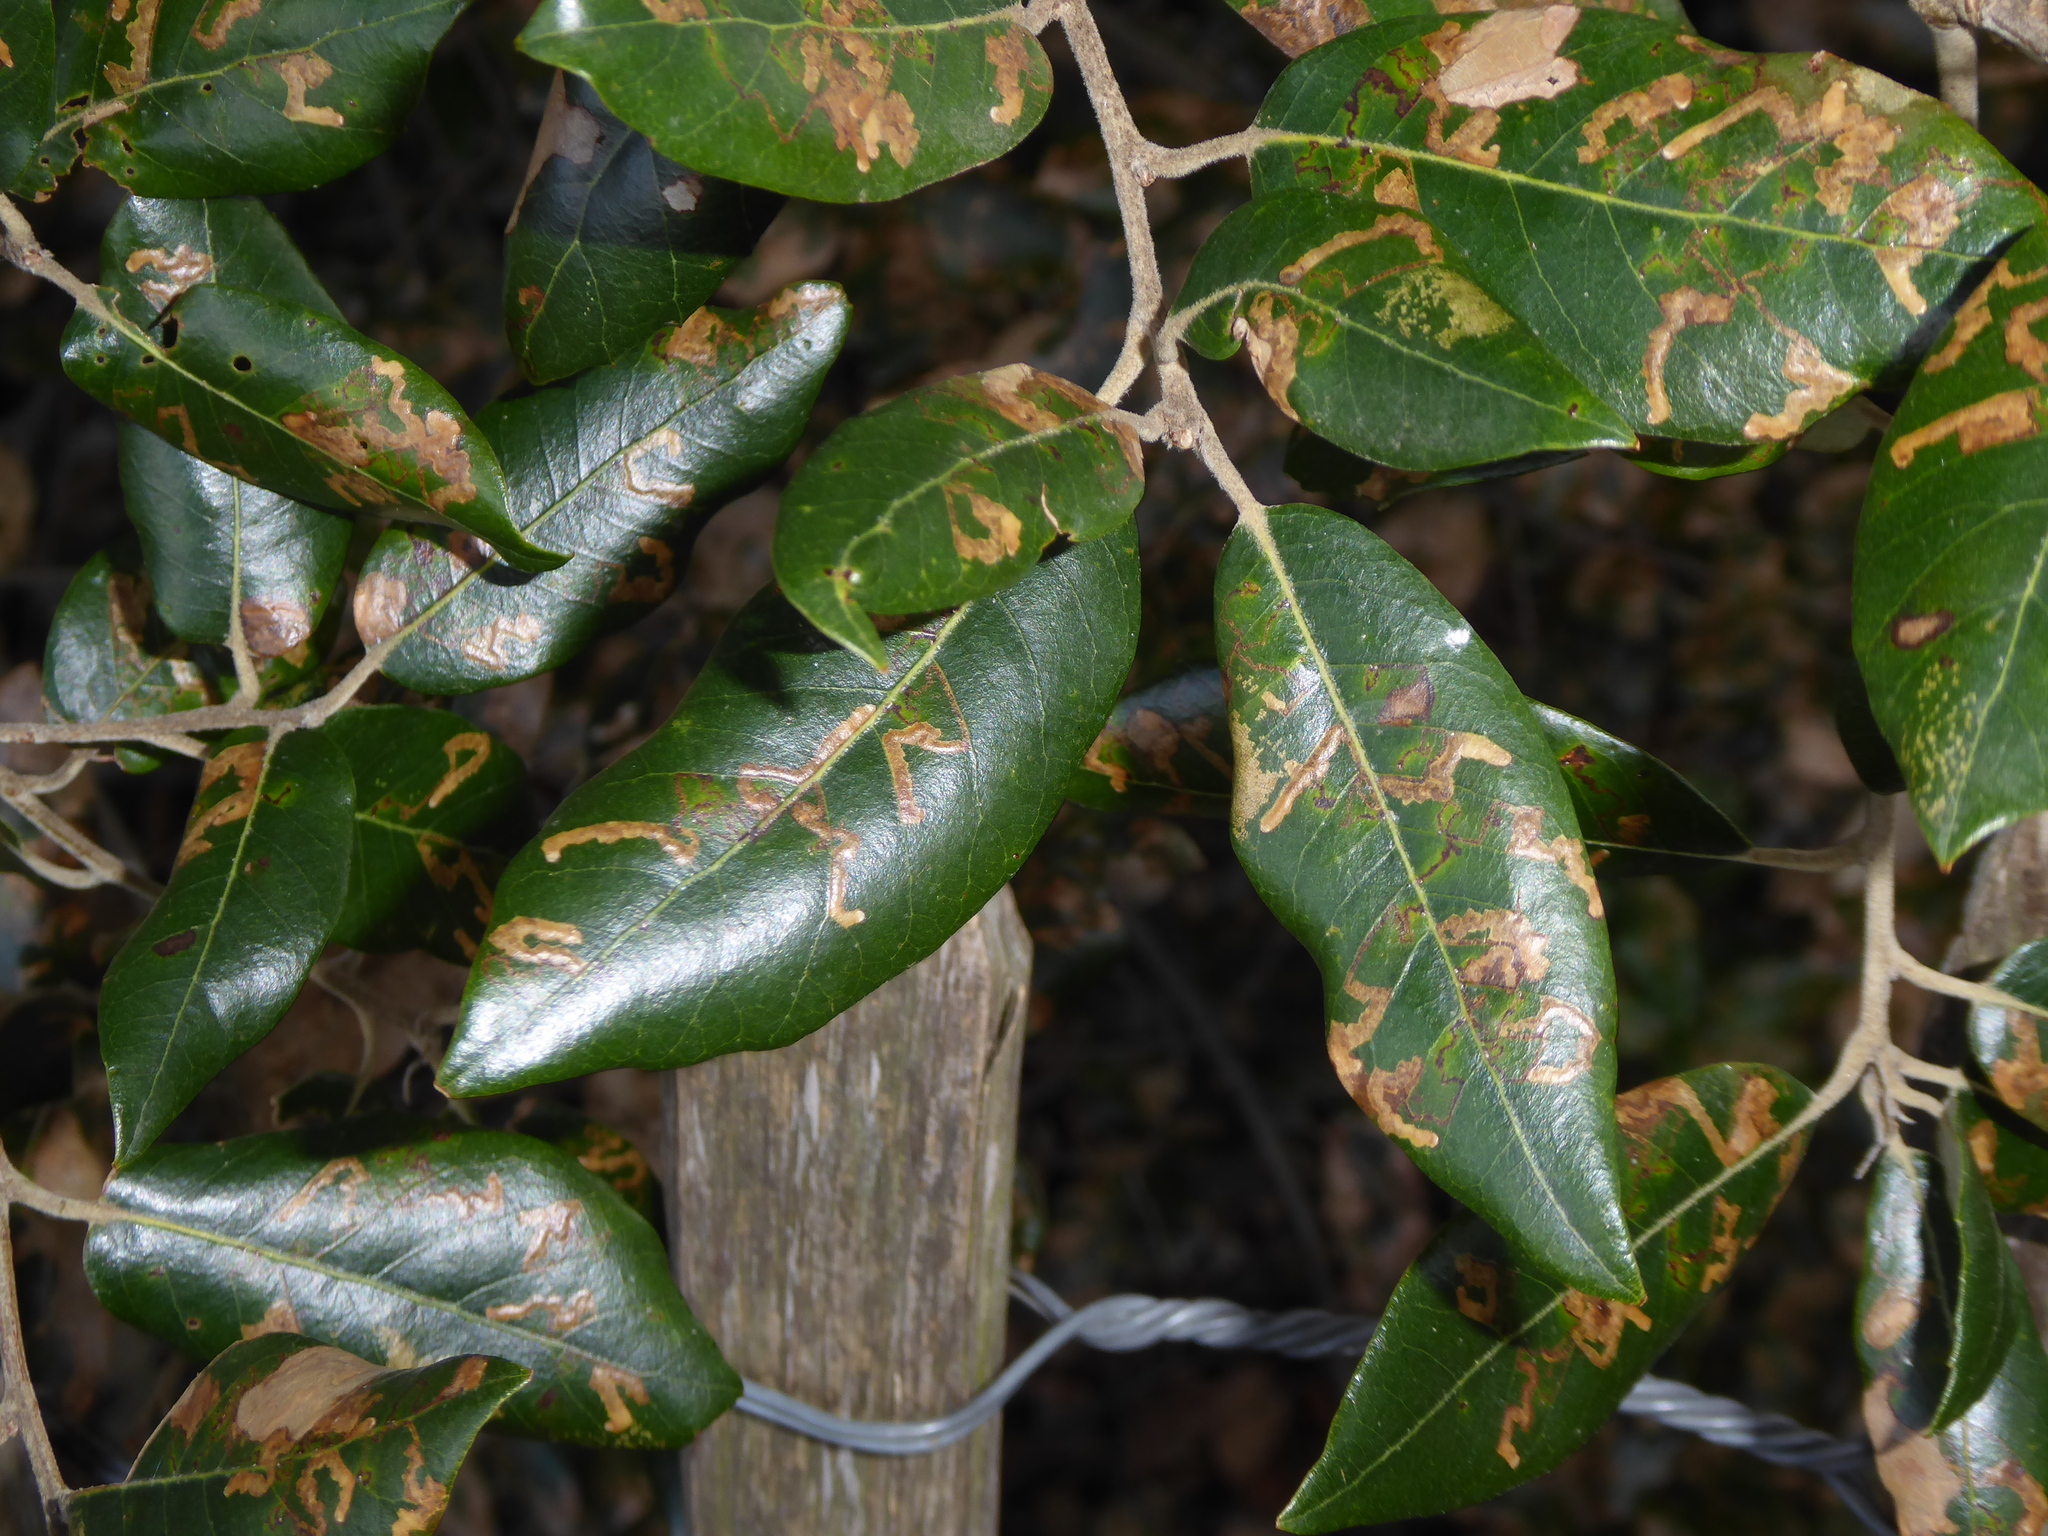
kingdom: Animalia
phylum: Arthropoda
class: Insecta
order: Lepidoptera
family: Nepticulidae
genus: Ectoedemia
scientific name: Ectoedemia heringella
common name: New holm-oak pigmy
